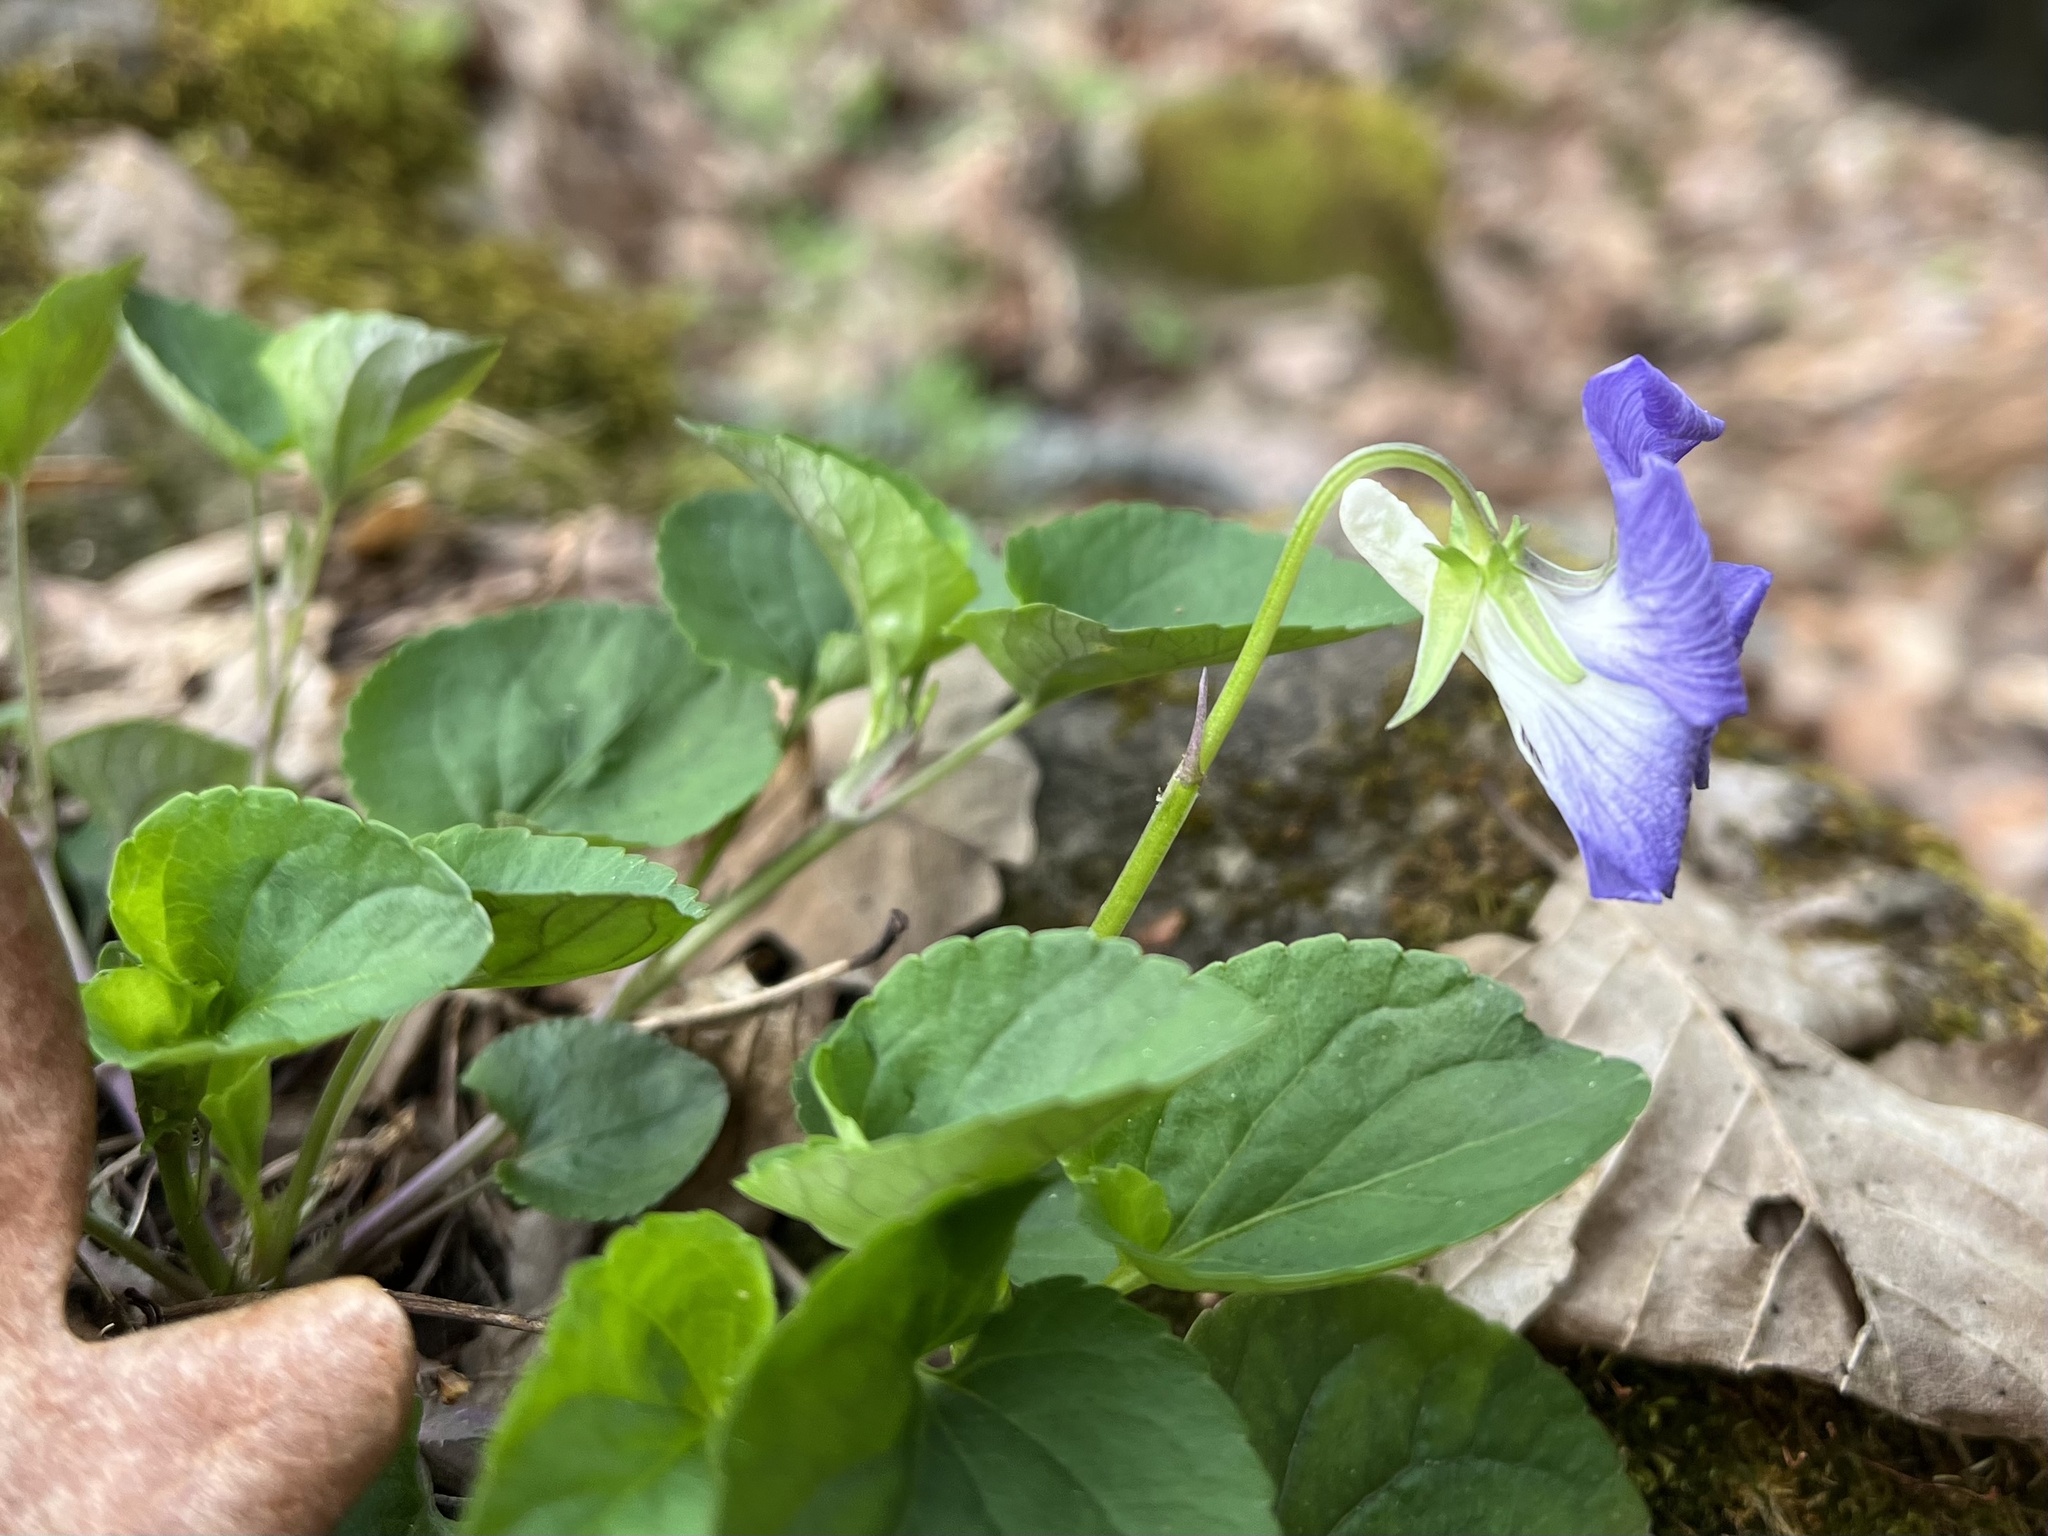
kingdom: Plantae
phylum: Tracheophyta
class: Magnoliopsida
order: Malpighiales
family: Violaceae
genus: Viola
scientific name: Viola riviniana
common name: Common dog-violet
